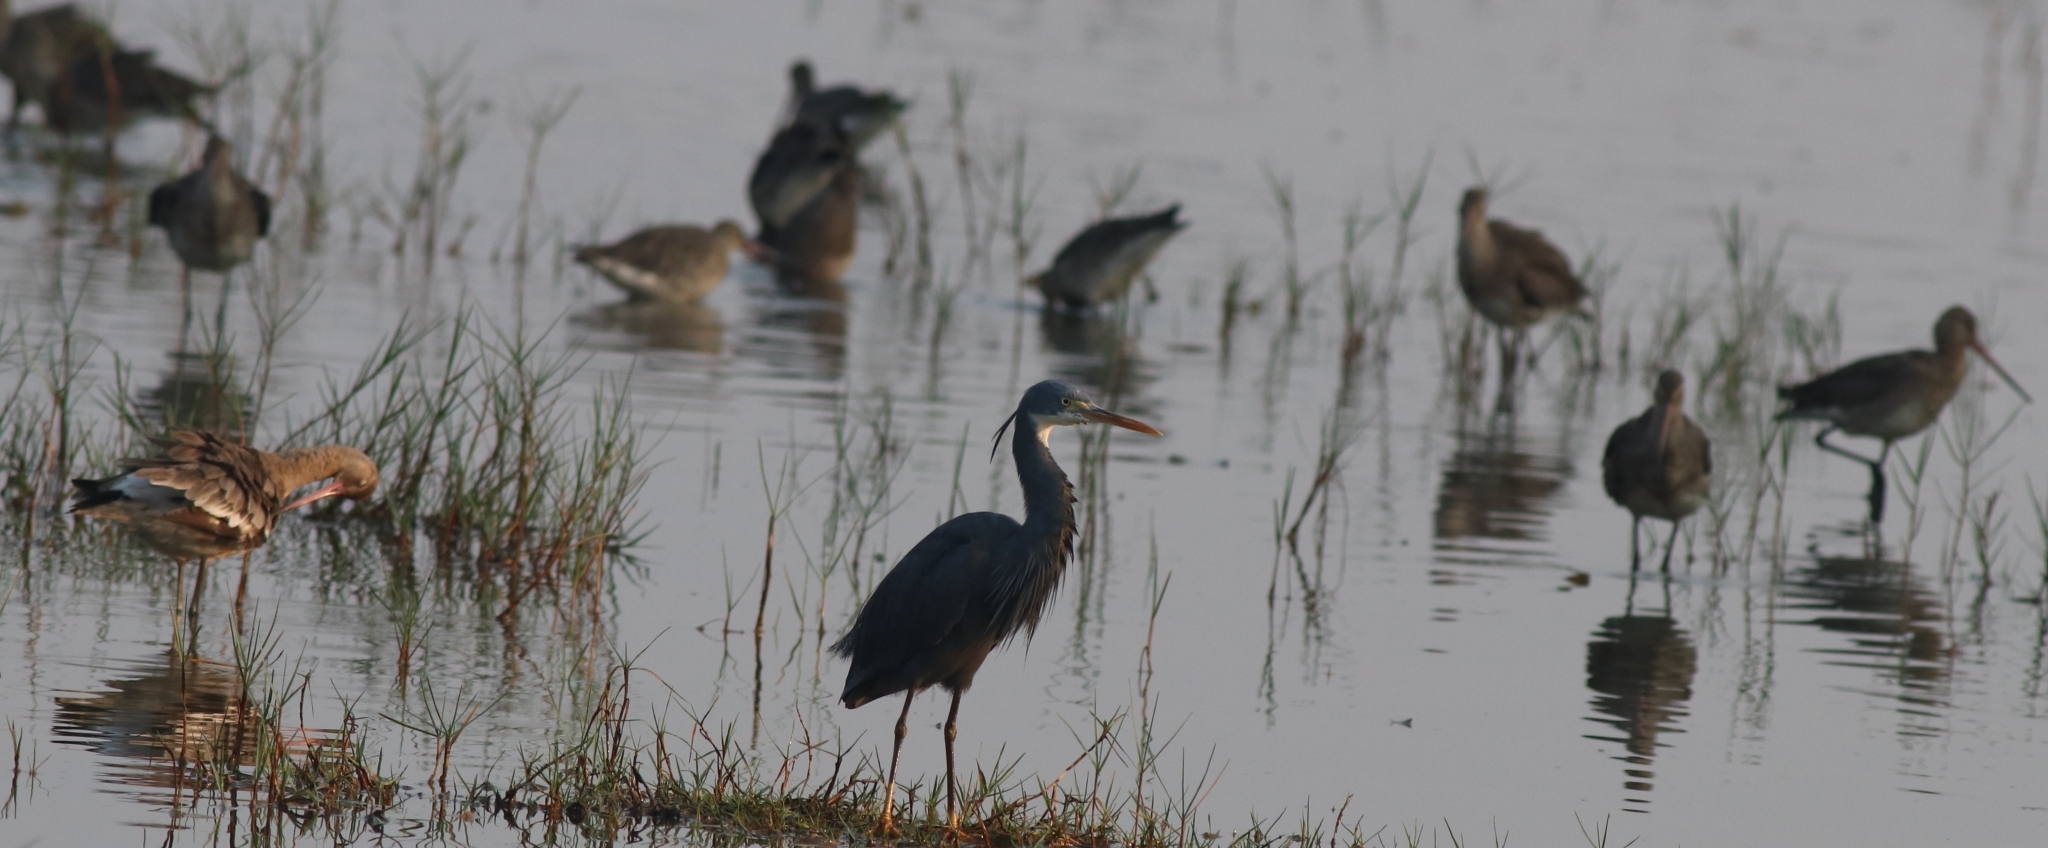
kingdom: Animalia
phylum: Chordata
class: Aves
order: Charadriiformes
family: Scolopacidae
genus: Limosa
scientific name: Limosa limosa
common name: Black-tailed godwit
